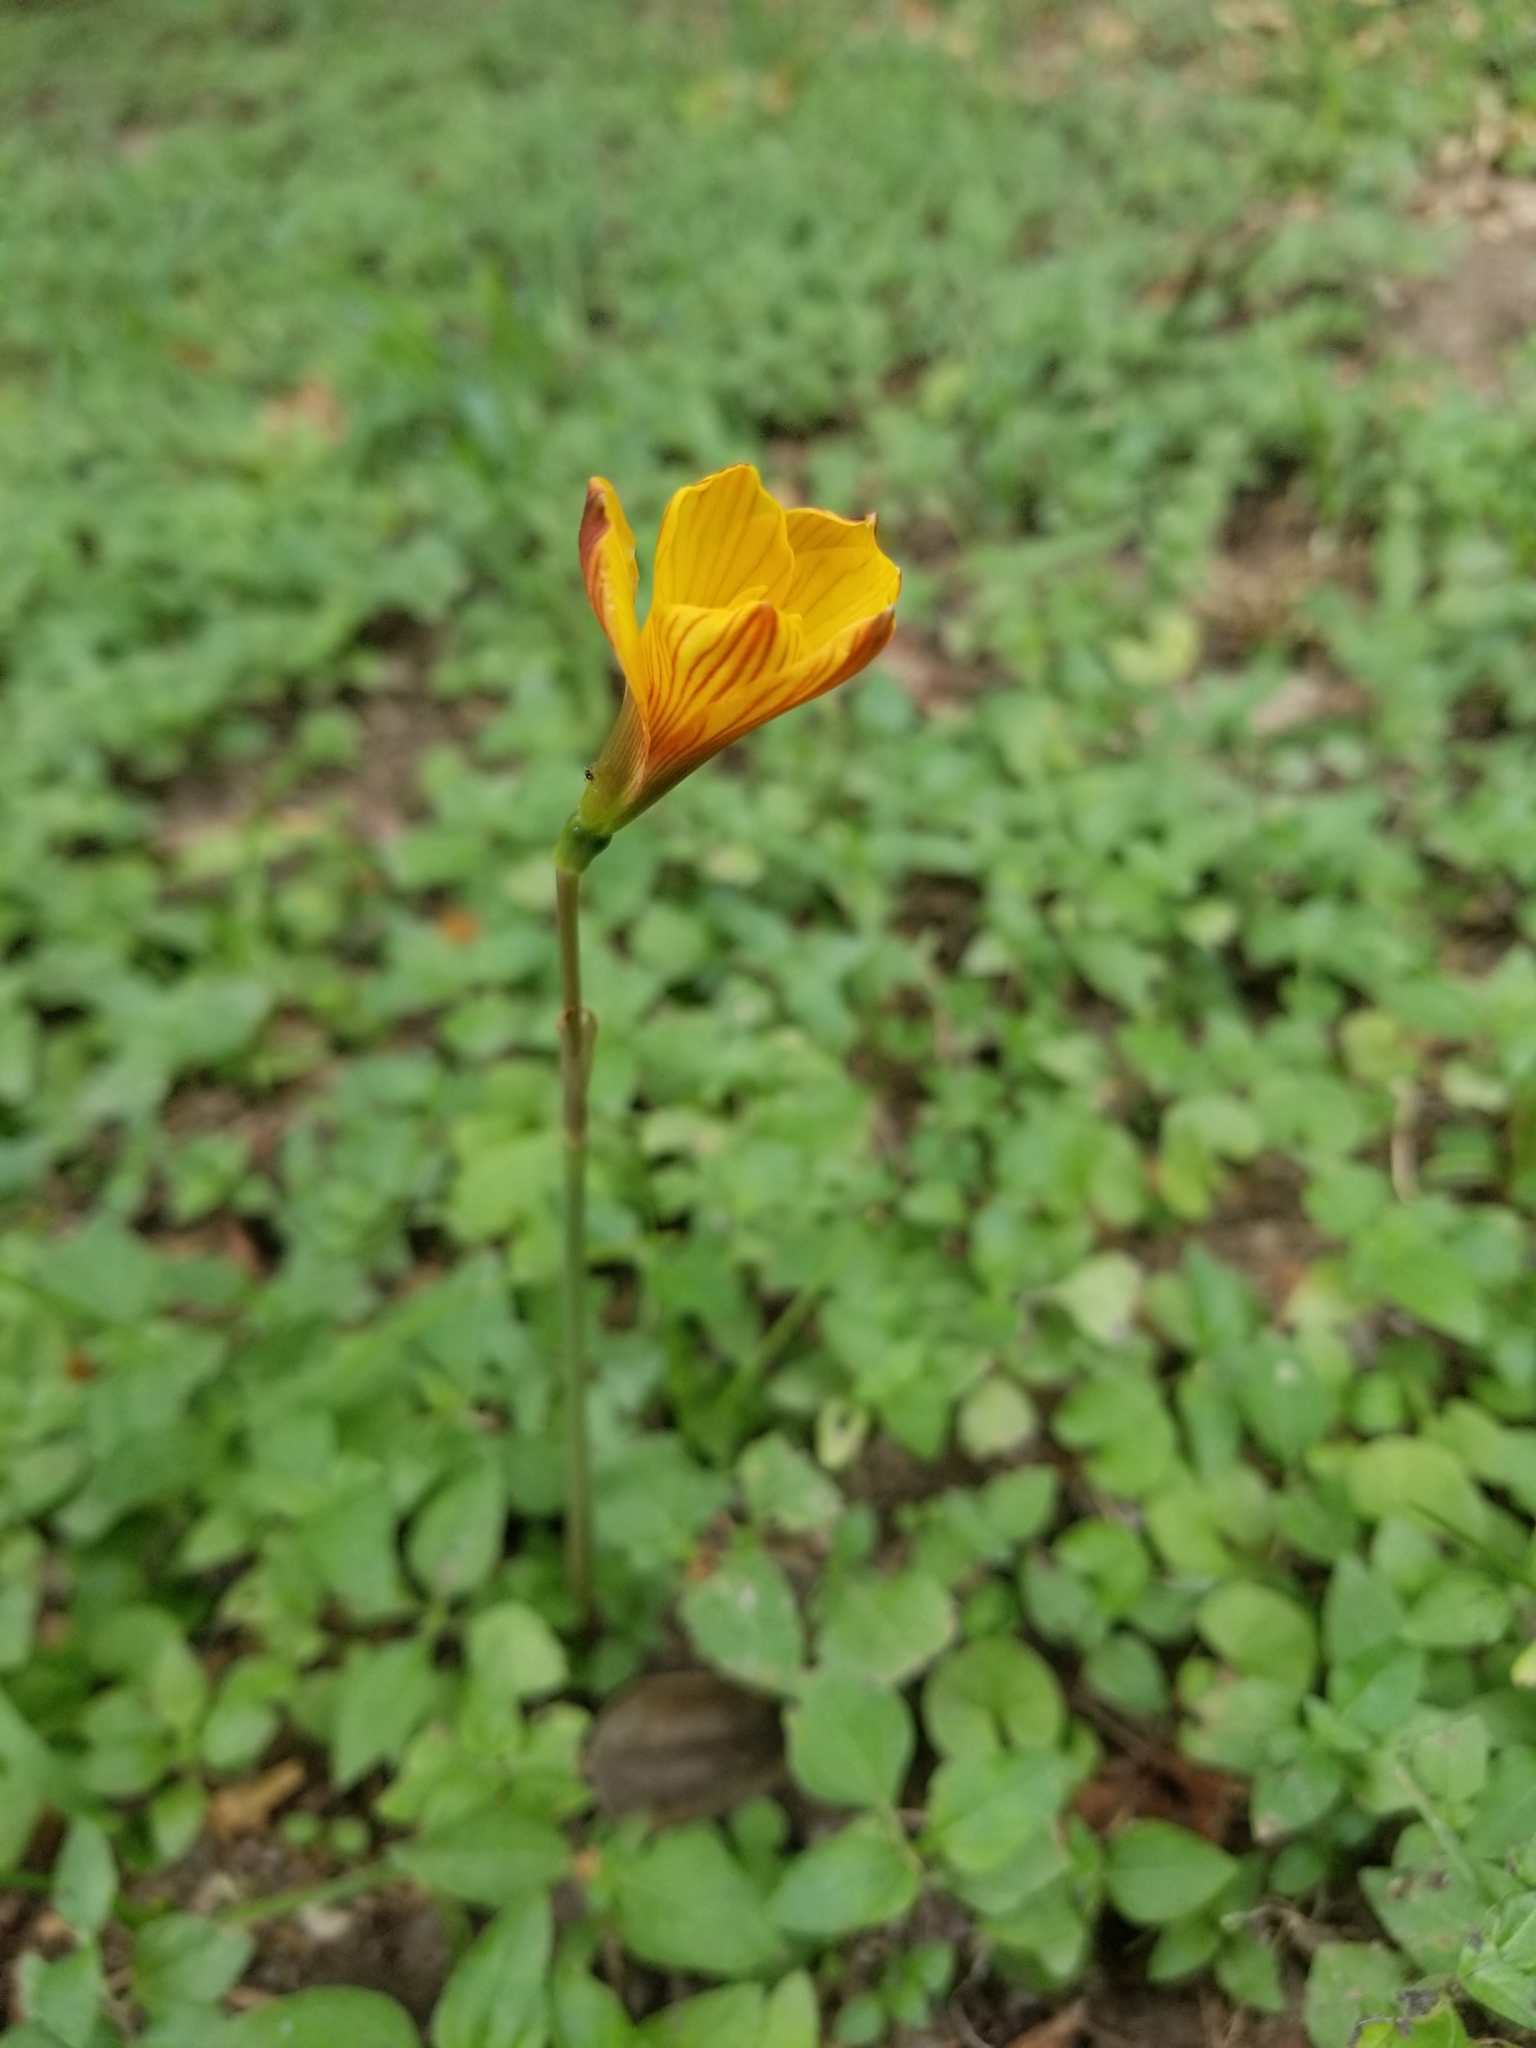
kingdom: Plantae
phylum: Tracheophyta
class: Liliopsida
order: Asparagales
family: Amaryllidaceae
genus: Zephyranthes
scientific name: Zephyranthes tubispatha
